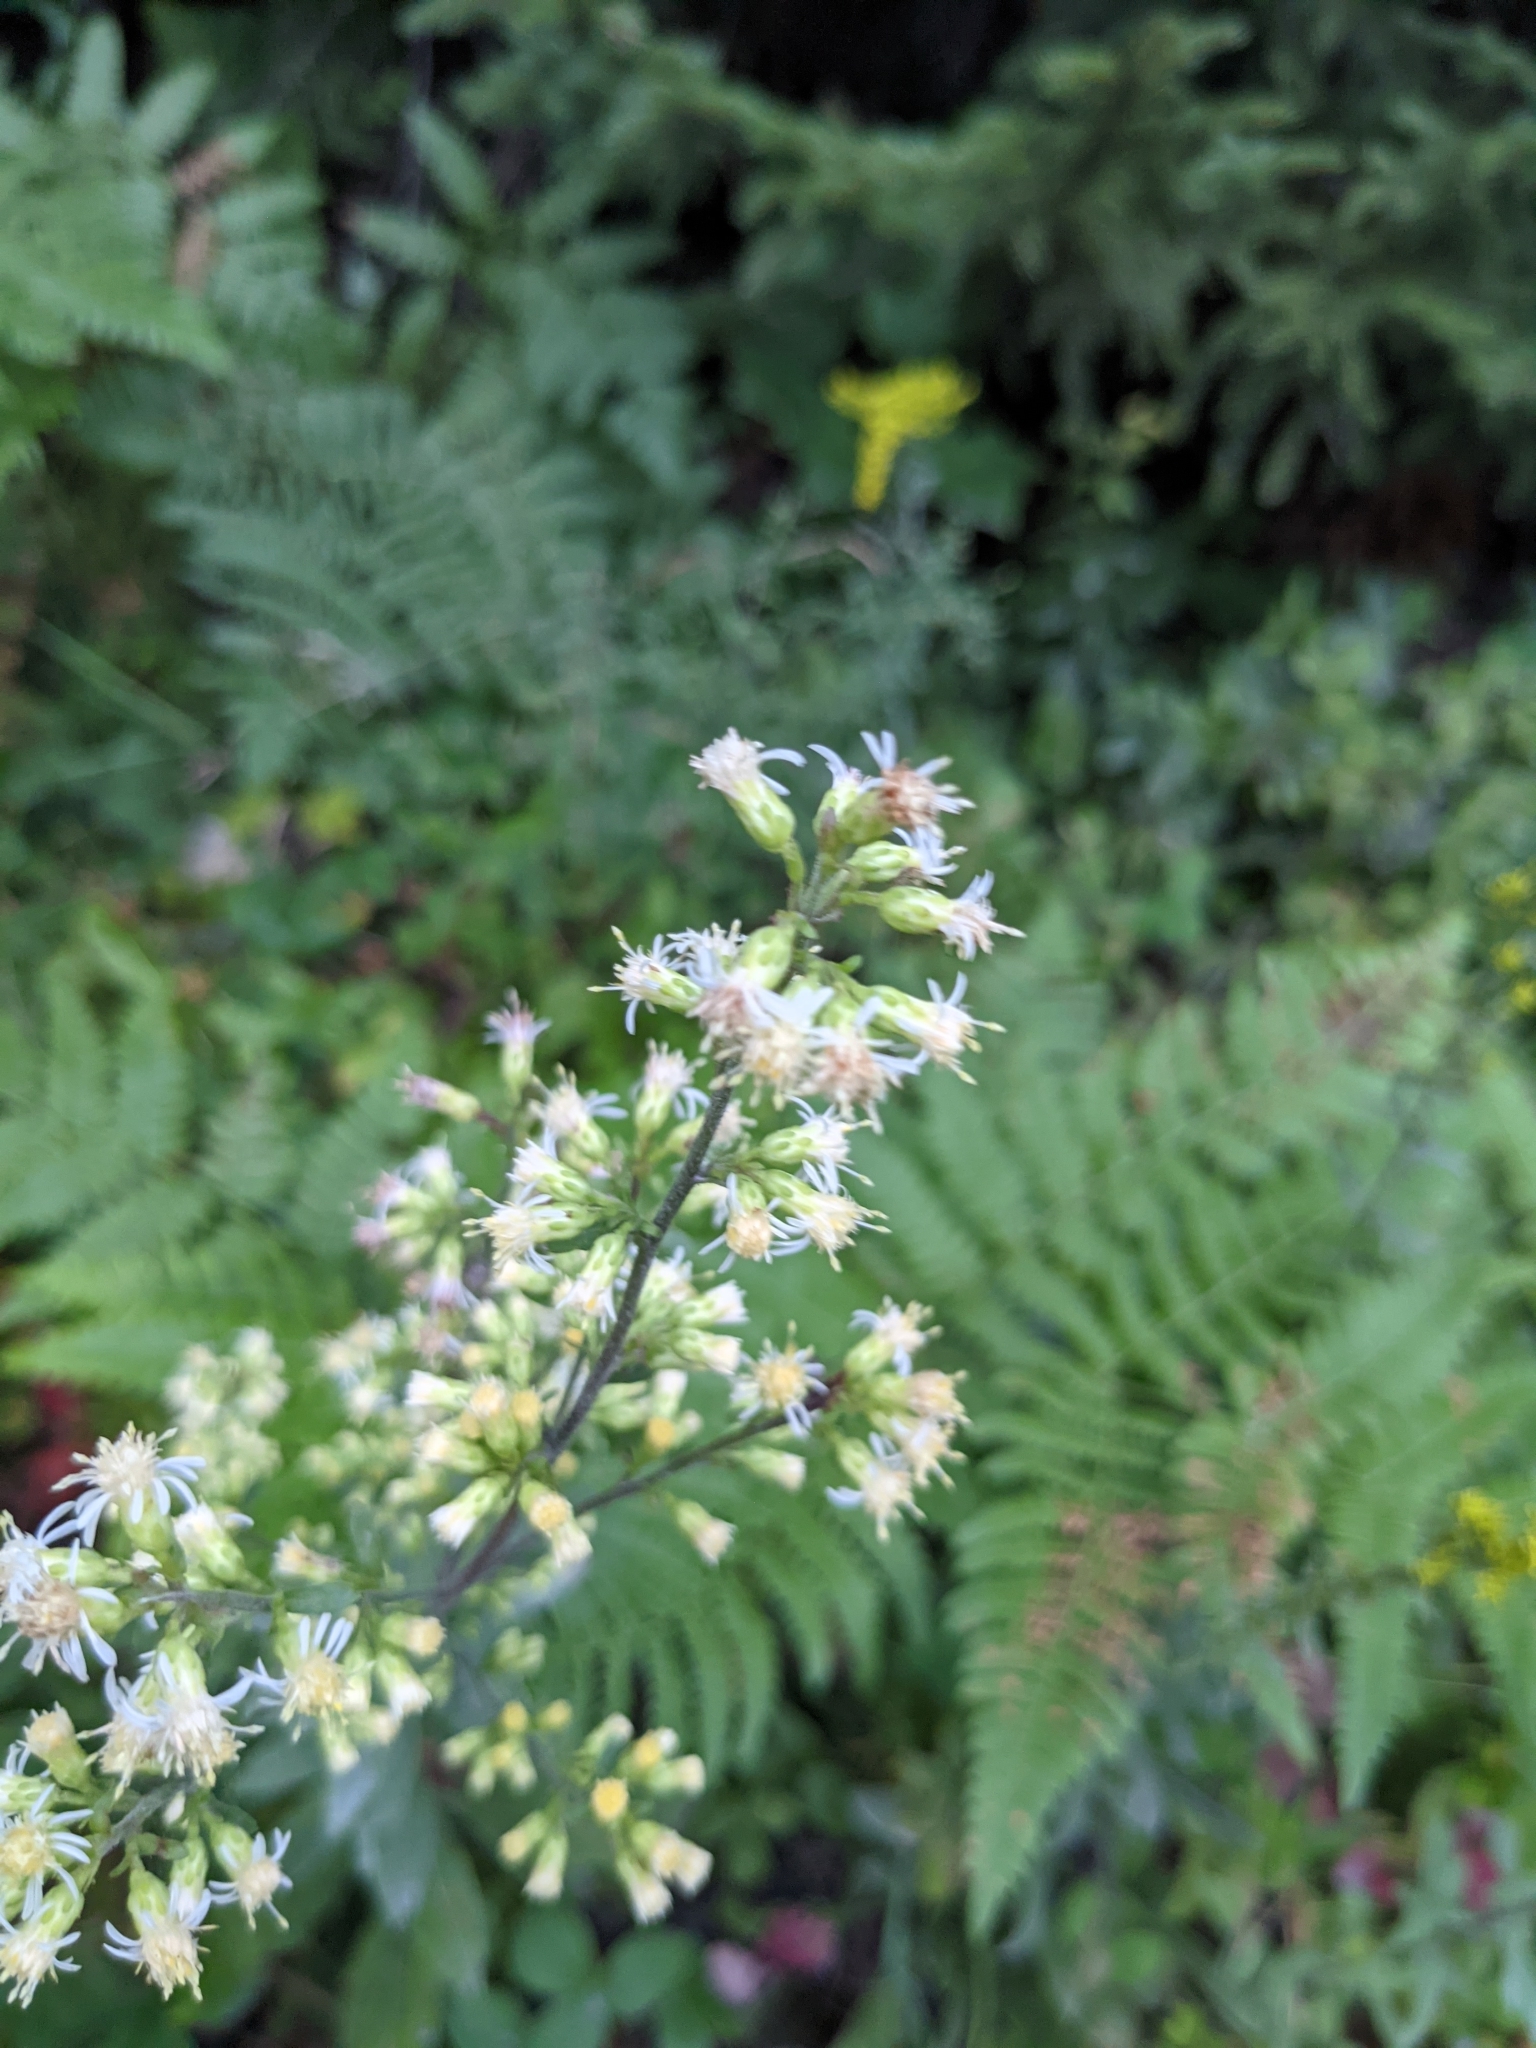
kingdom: Plantae
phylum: Tracheophyta
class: Magnoliopsida
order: Asterales
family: Asteraceae
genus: Solidago
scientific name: Solidago bicolor
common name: Silverrod
